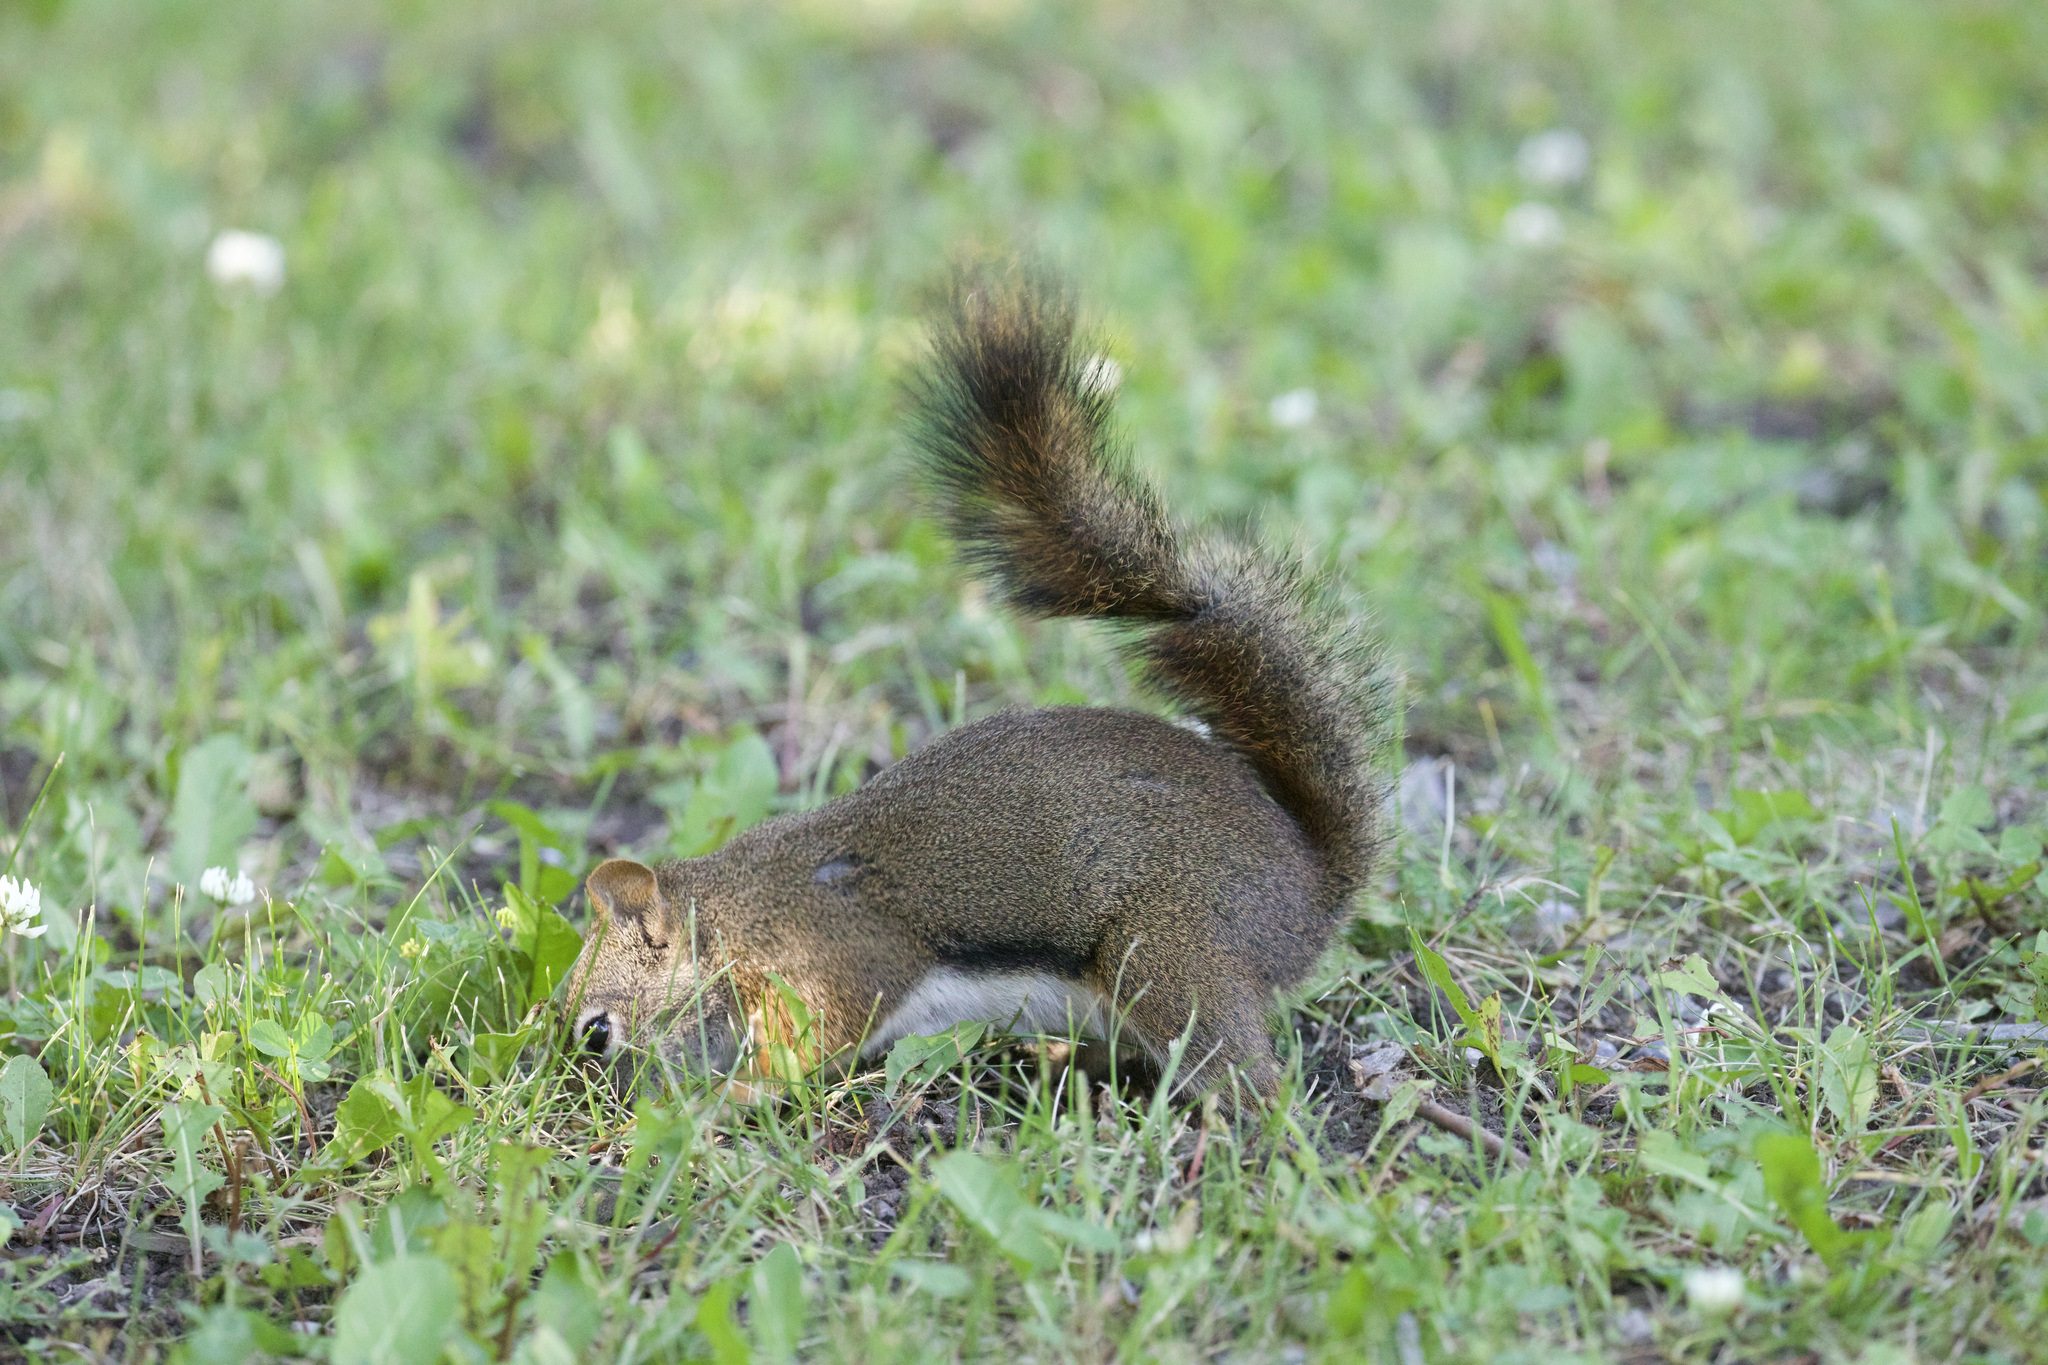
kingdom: Animalia
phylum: Chordata
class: Mammalia
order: Rodentia
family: Sciuridae
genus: Tamiasciurus
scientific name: Tamiasciurus hudsonicus
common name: Red squirrel
